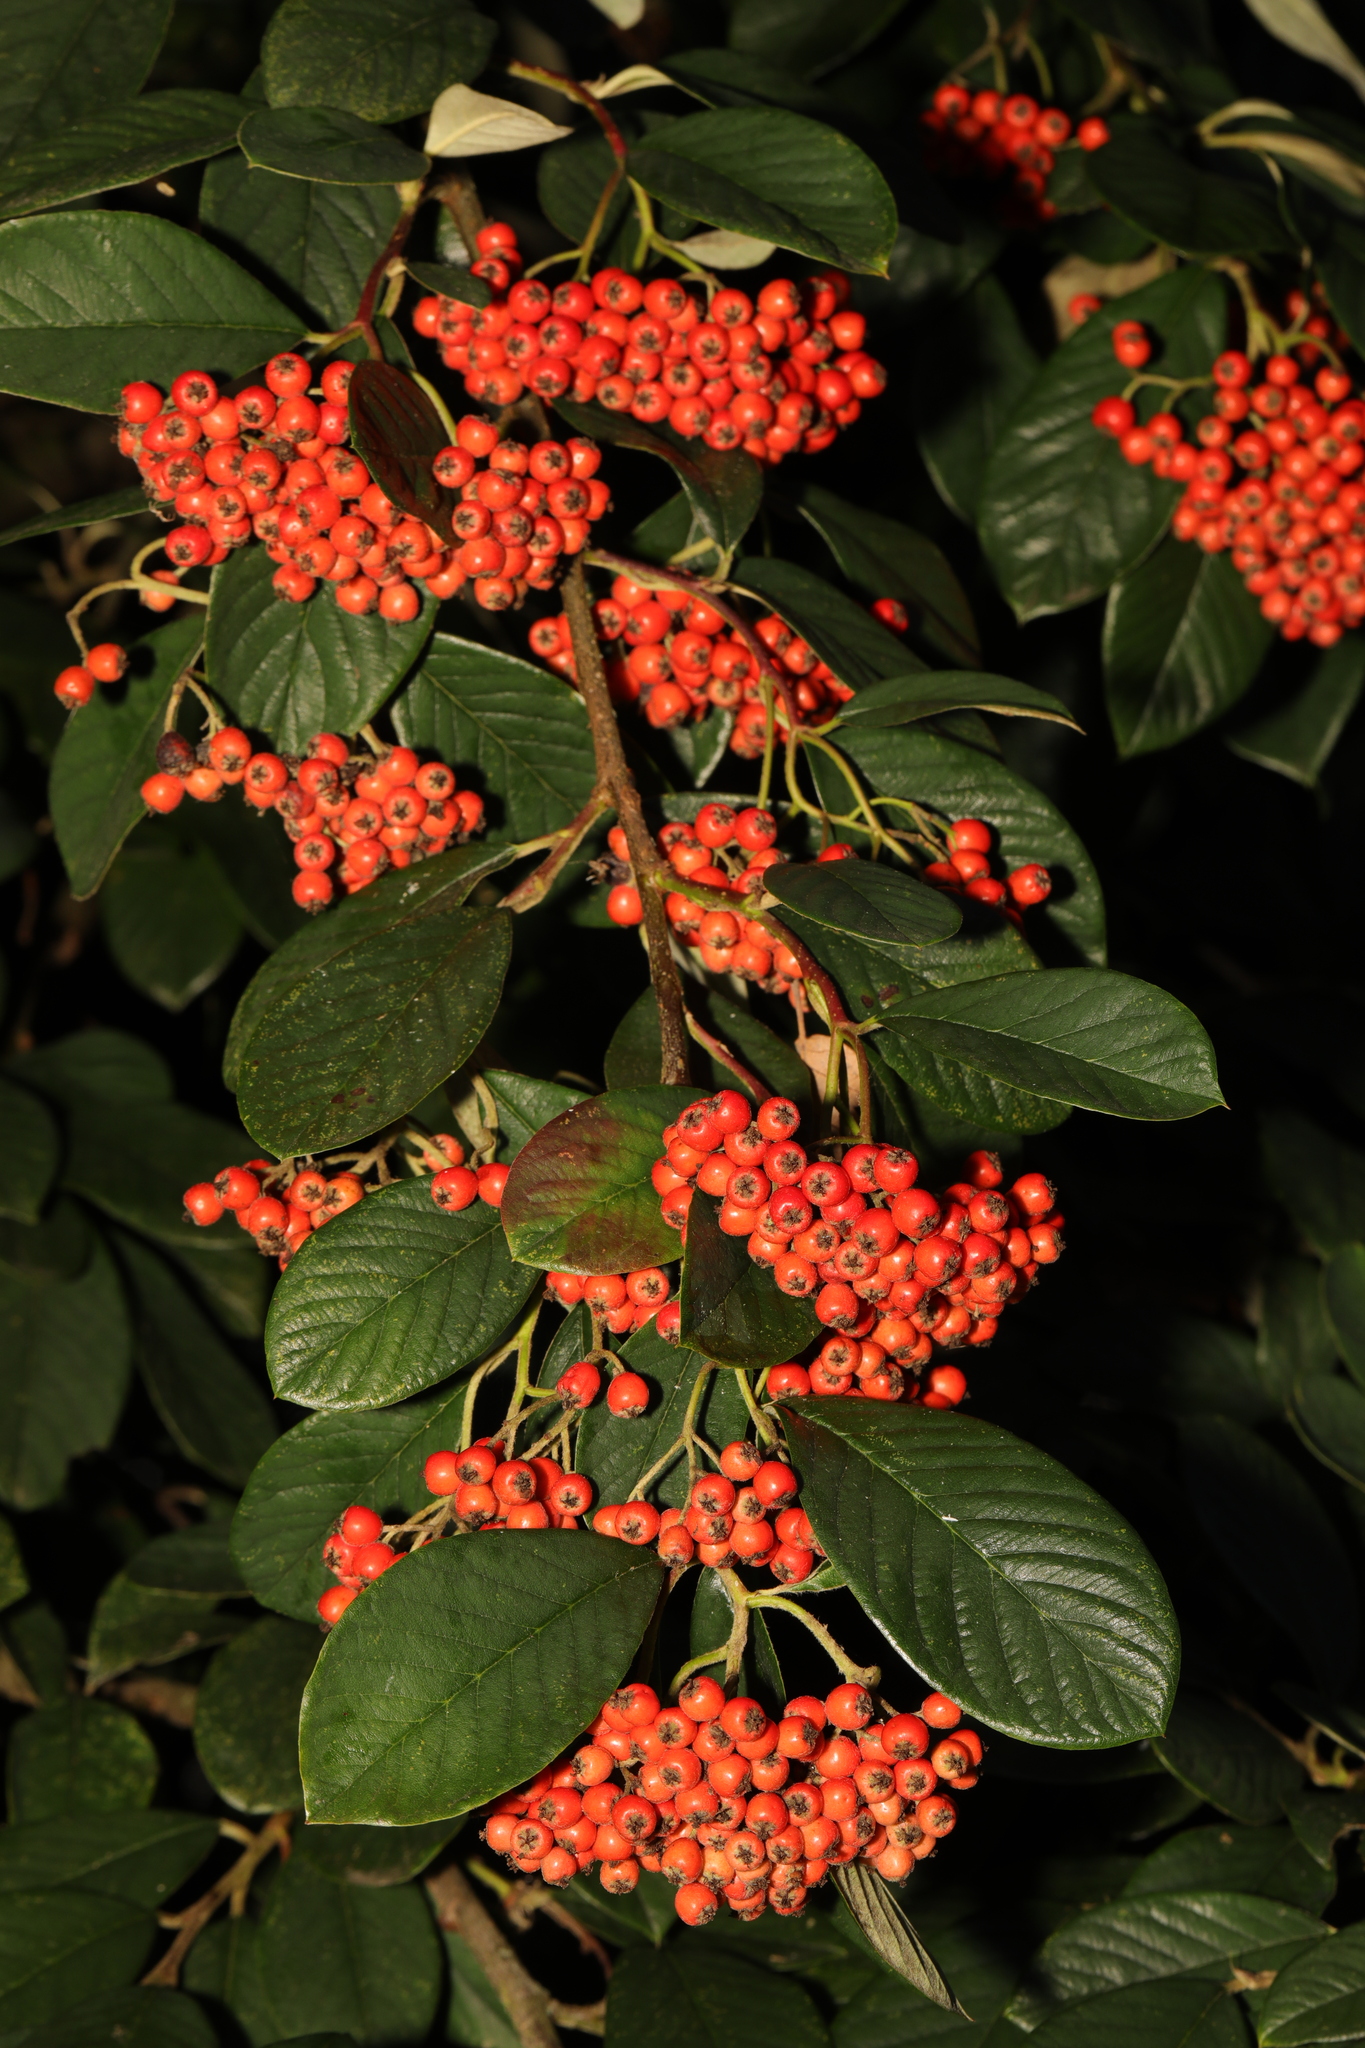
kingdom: Plantae
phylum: Tracheophyta
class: Magnoliopsida
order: Rosales
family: Rosaceae
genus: Cotoneaster
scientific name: Cotoneaster coriaceus
